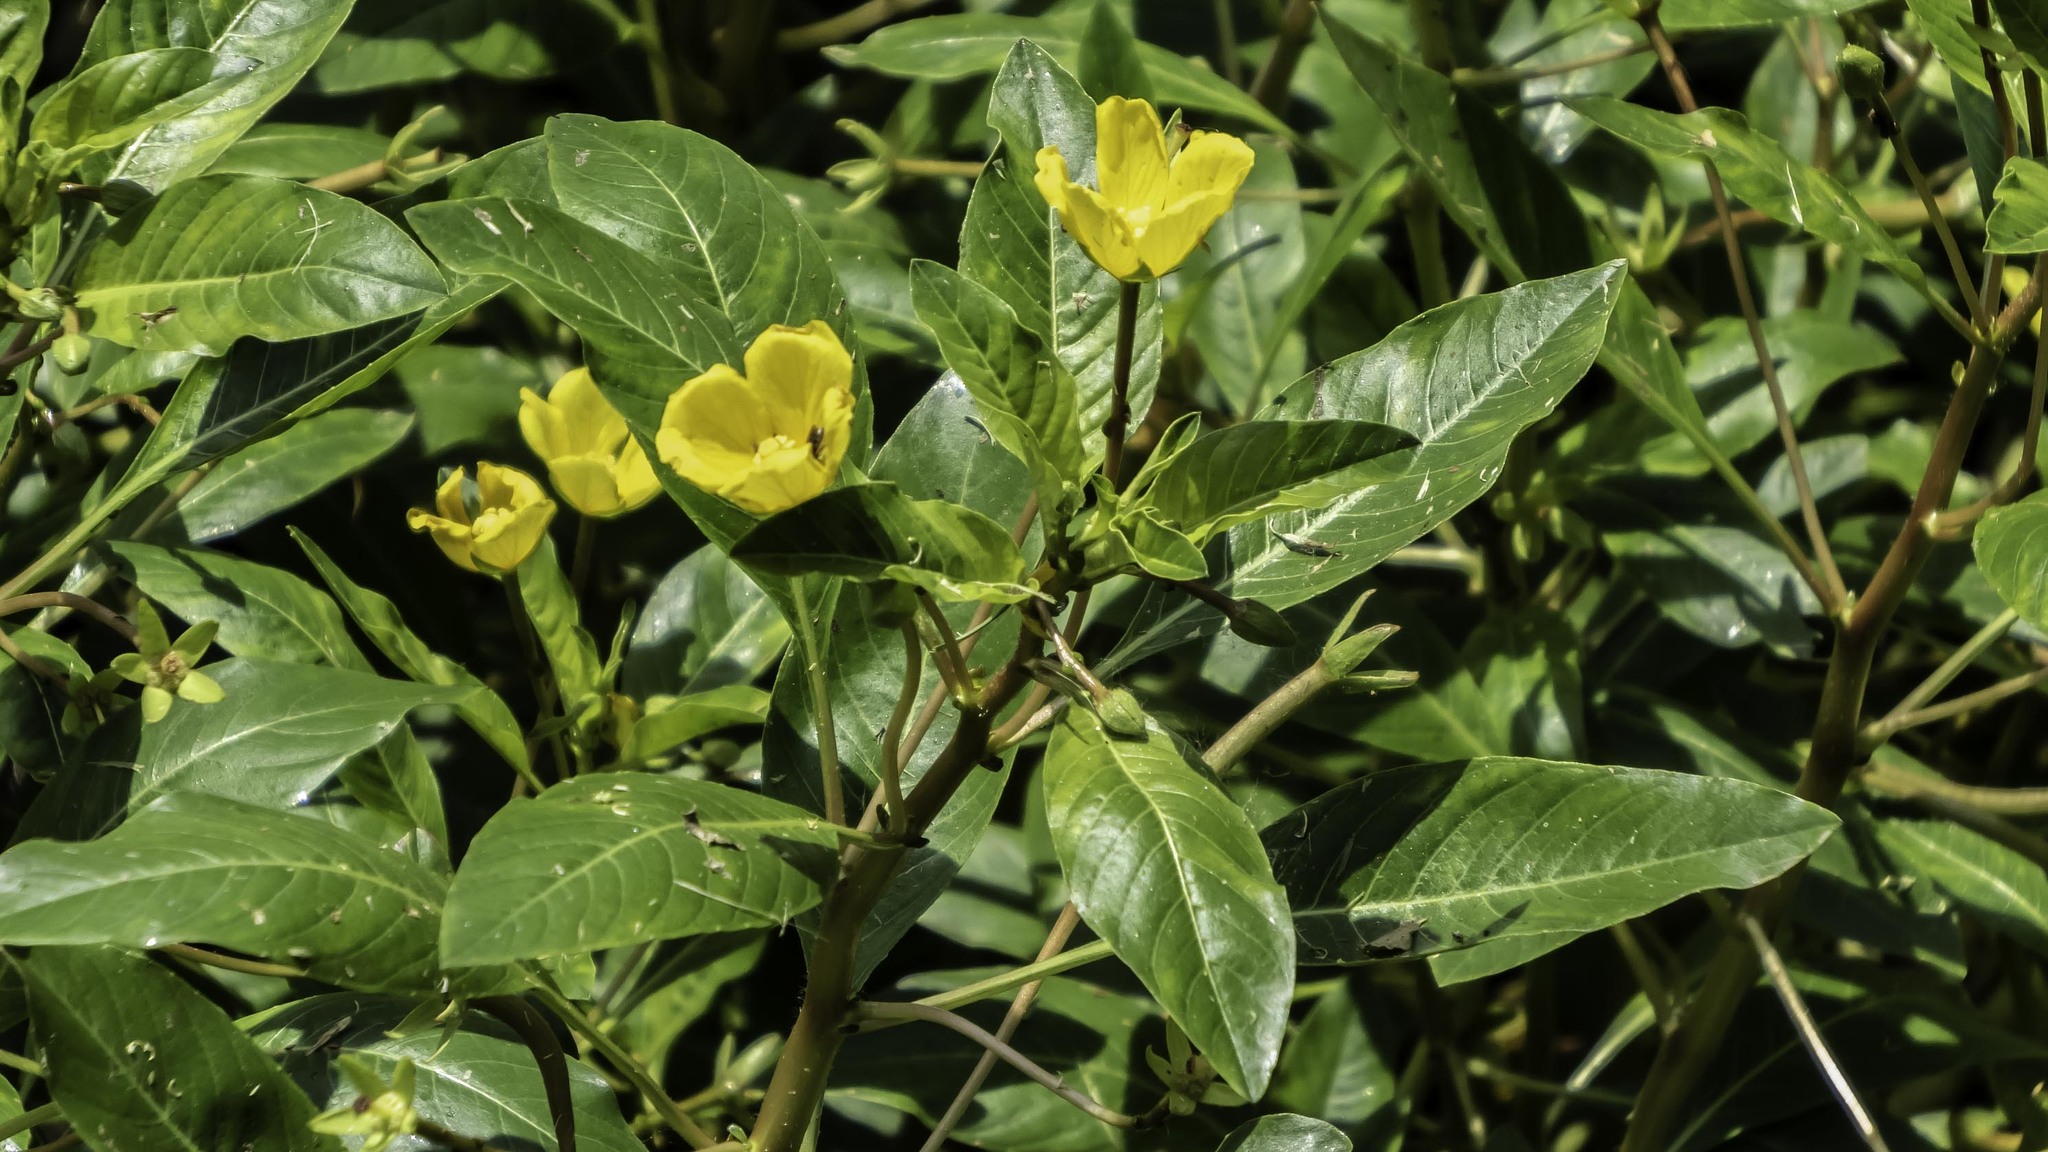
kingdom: Plantae
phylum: Tracheophyta
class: Magnoliopsida
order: Myrtales
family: Onagraceae
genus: Ludwigia
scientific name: Ludwigia peploides
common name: Floating primrose-willow
